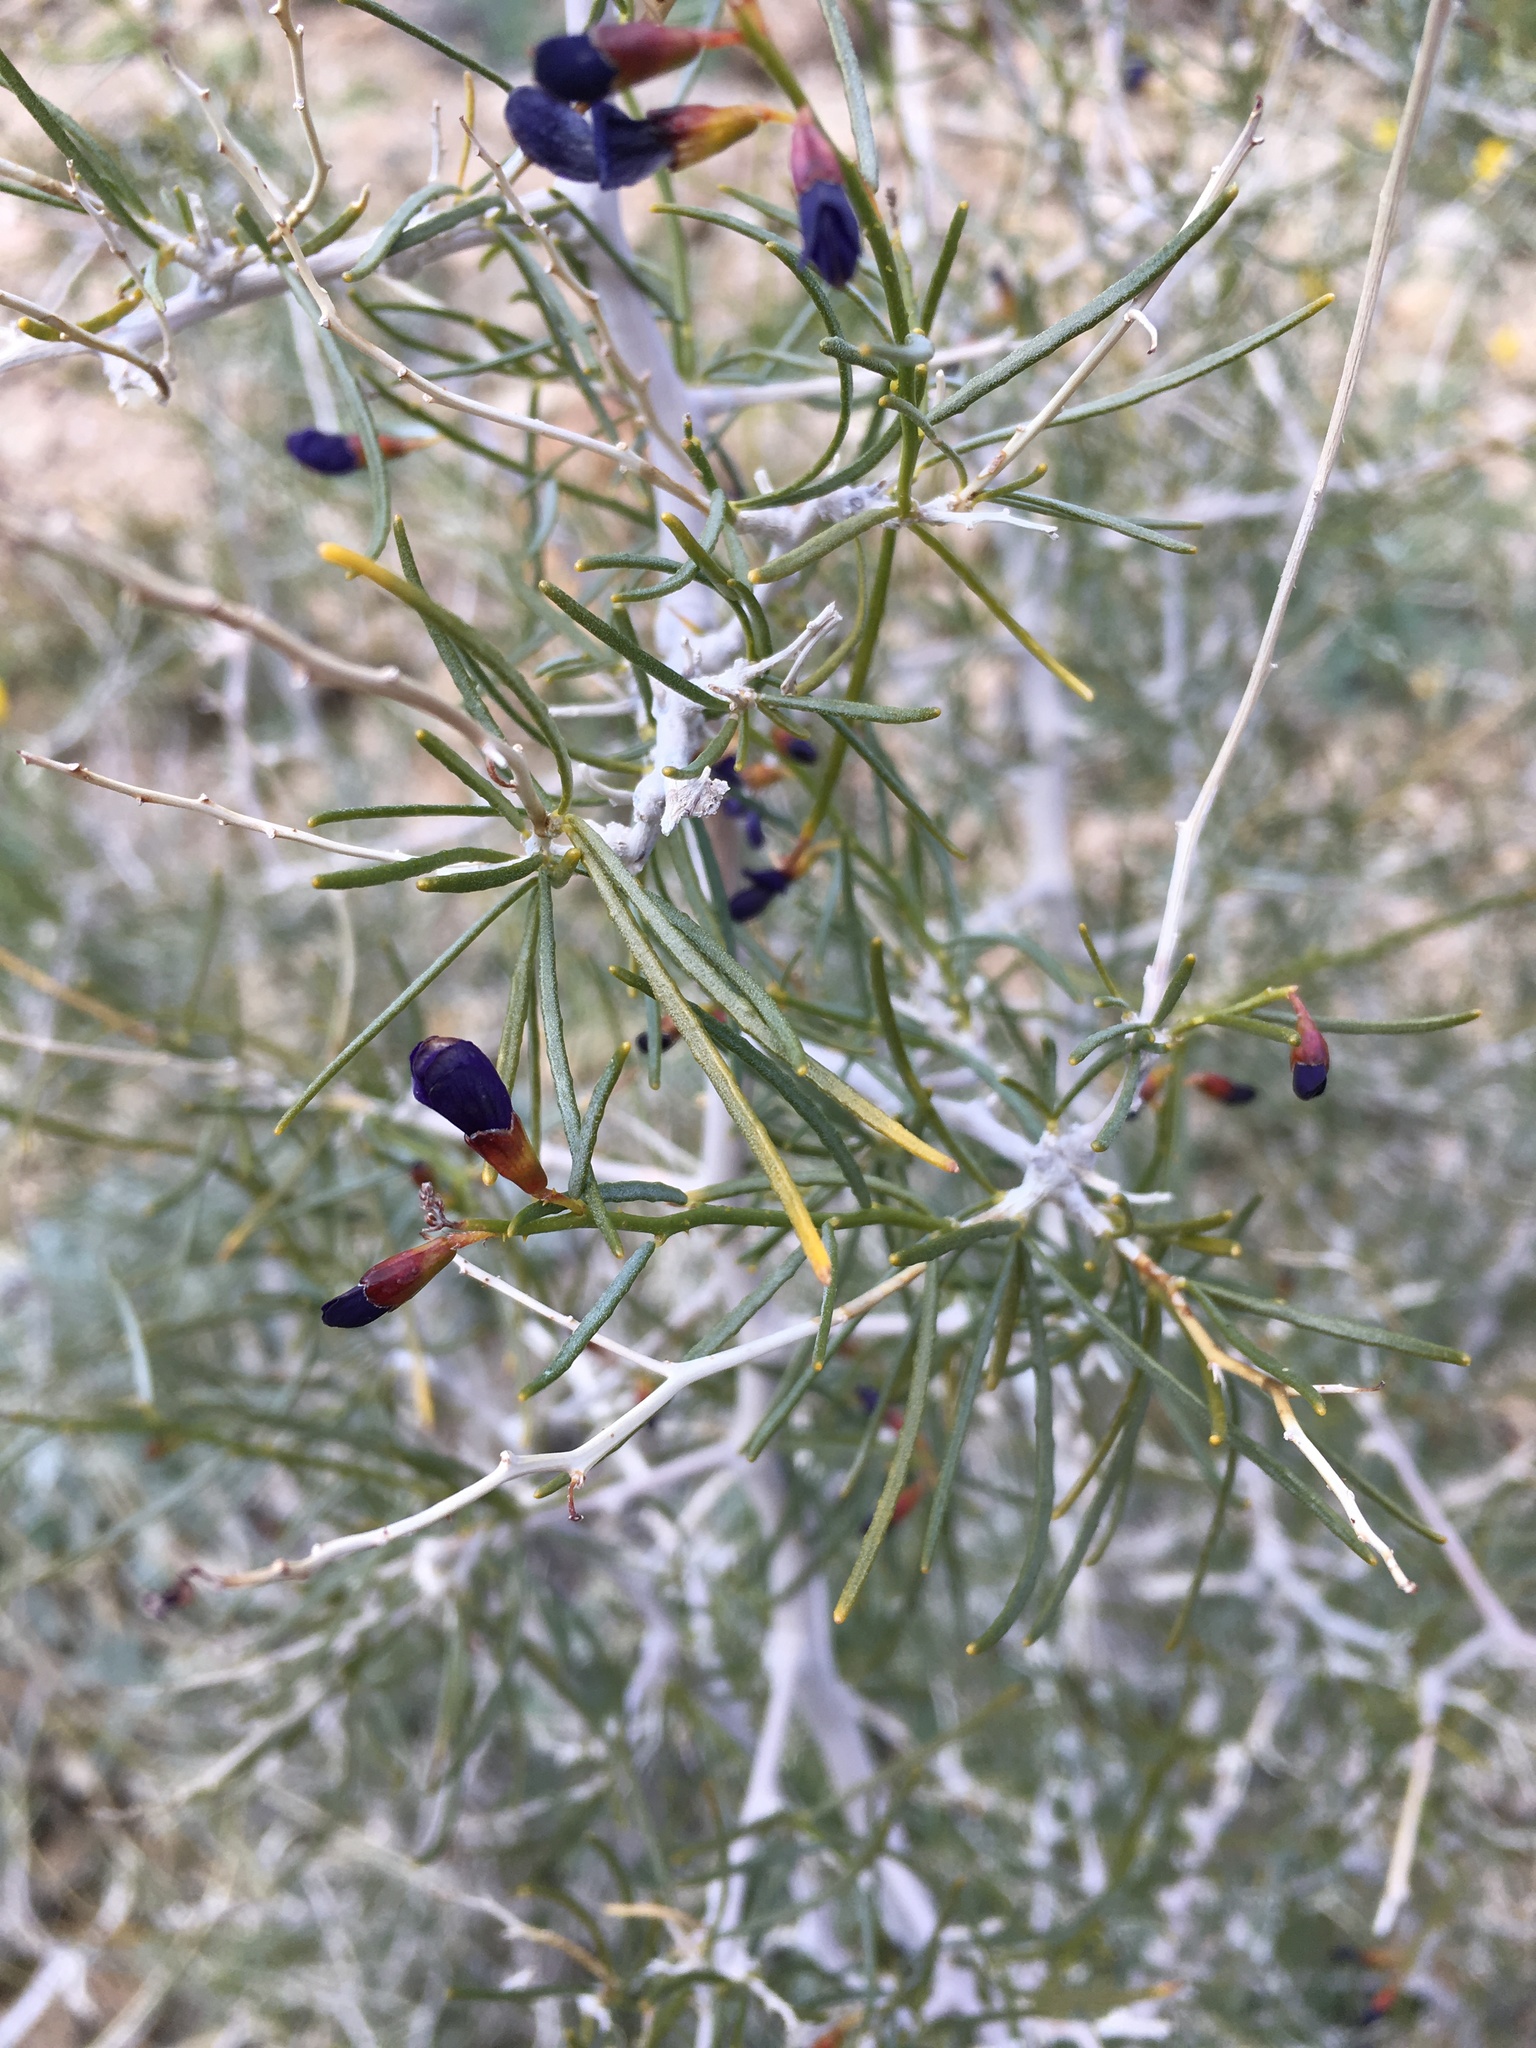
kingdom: Plantae
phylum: Tracheophyta
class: Magnoliopsida
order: Fabales
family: Fabaceae
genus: Psorothamnus
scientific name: Psorothamnus schottii
